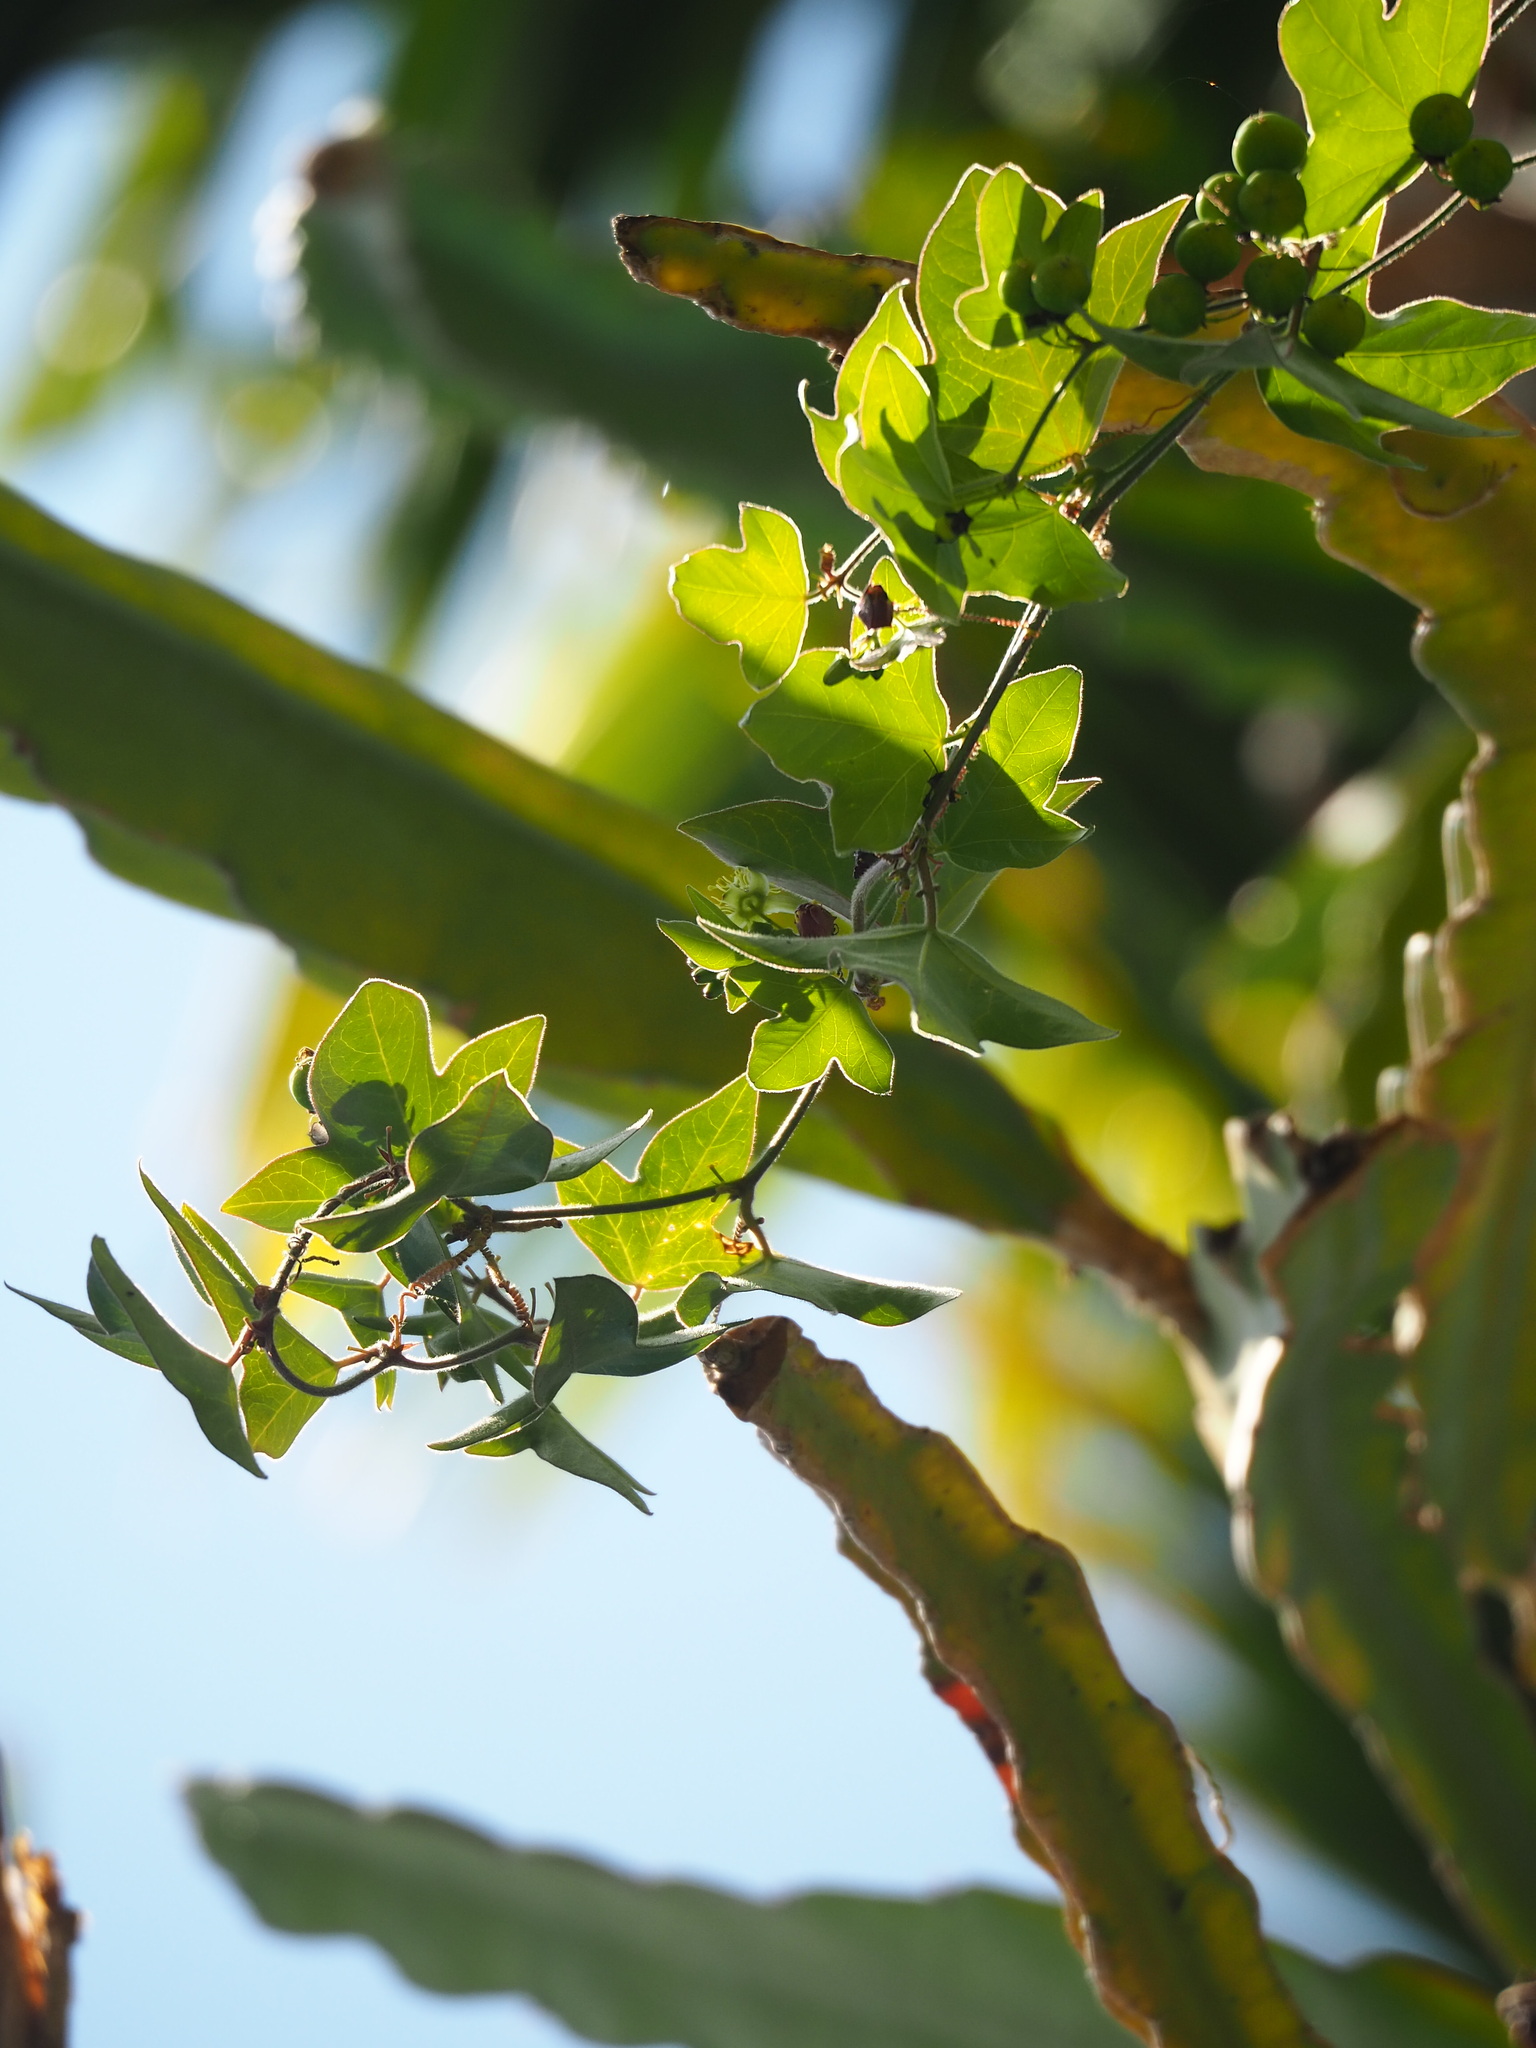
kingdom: Plantae
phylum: Tracheophyta
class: Magnoliopsida
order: Malpighiales
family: Passifloraceae
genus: Passiflora
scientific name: Passiflora suberosa
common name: Wild passionfruit
